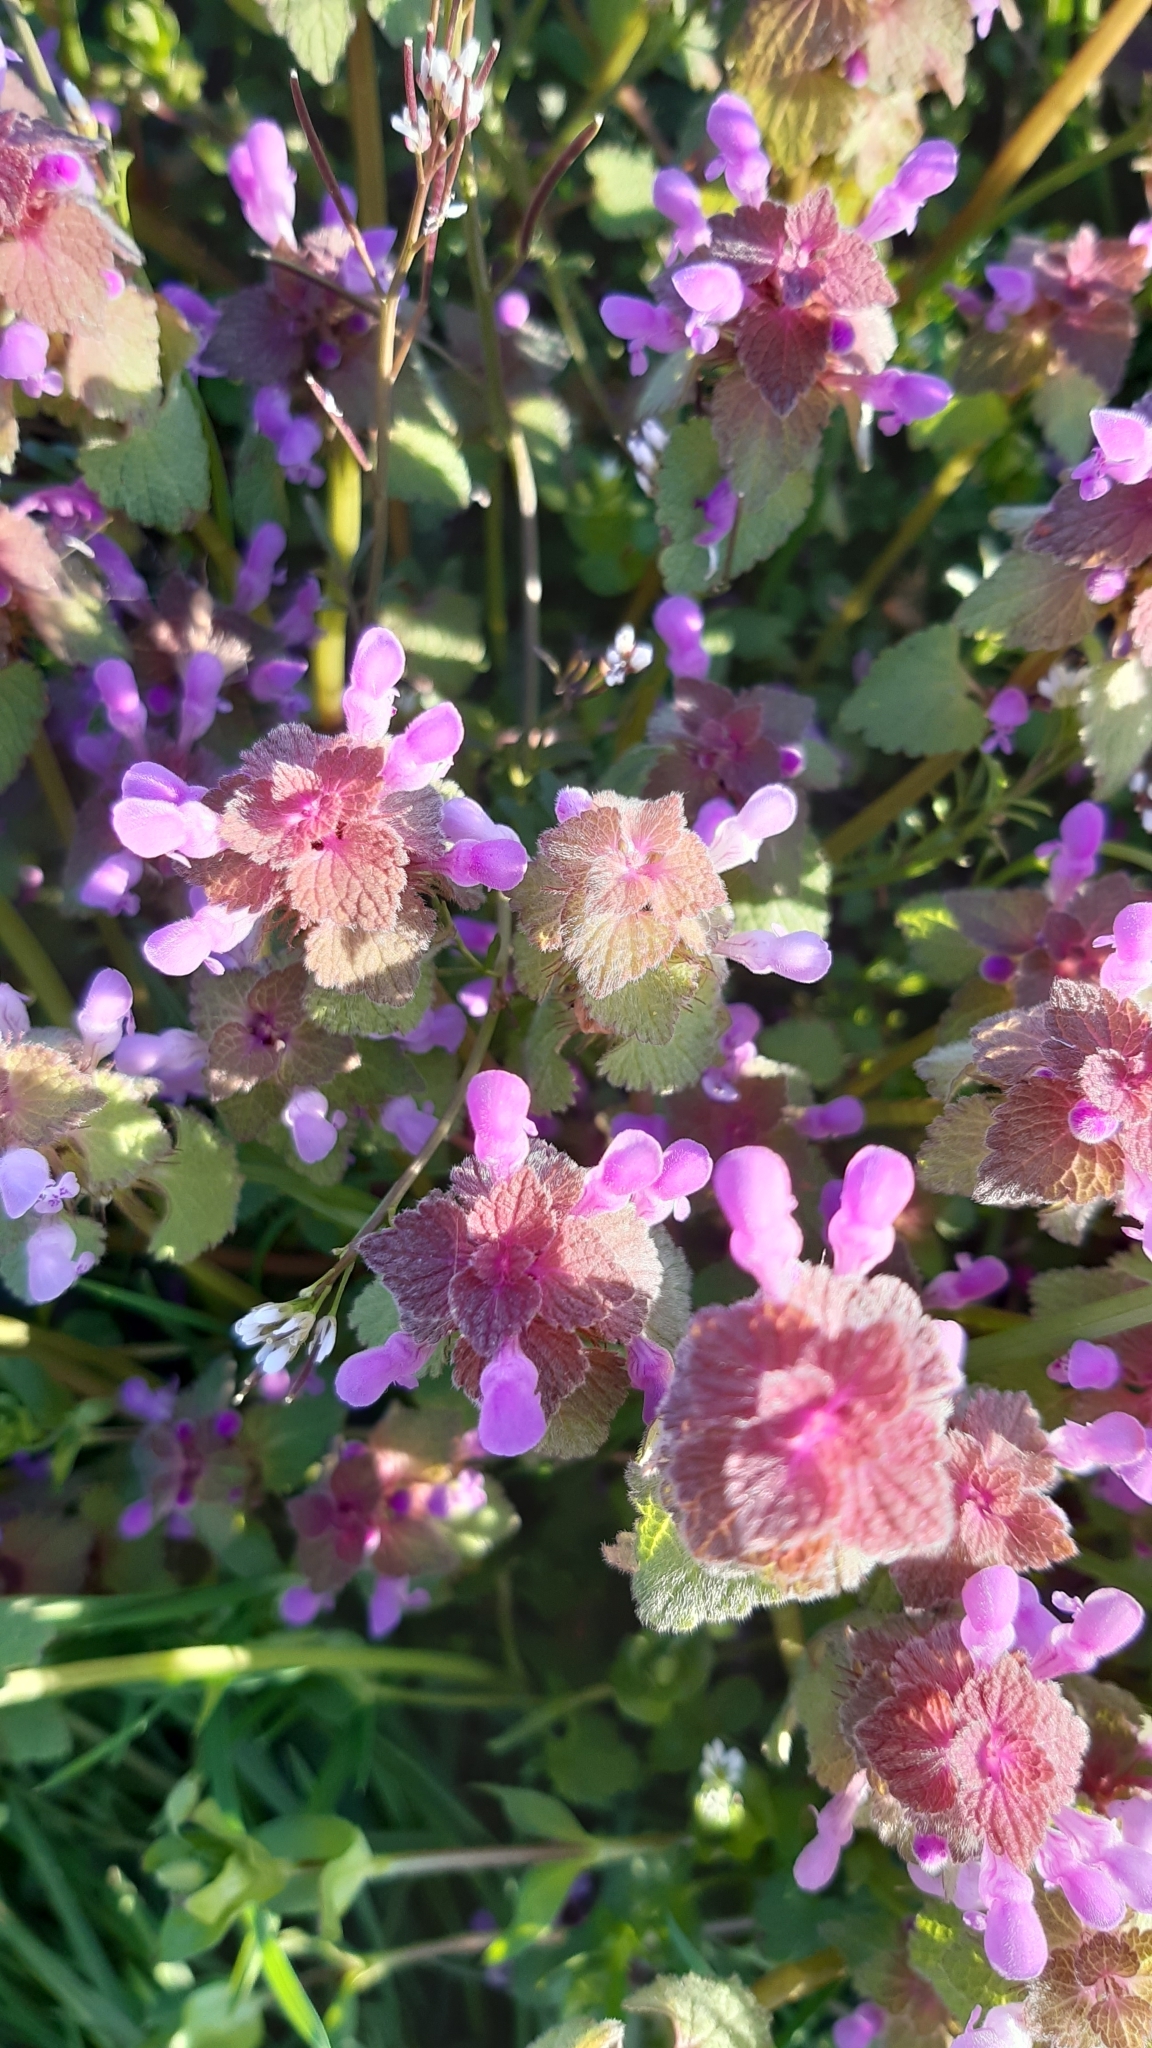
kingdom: Plantae
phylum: Tracheophyta
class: Magnoliopsida
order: Lamiales
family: Lamiaceae
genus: Lamium
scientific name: Lamium purpureum
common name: Red dead-nettle
